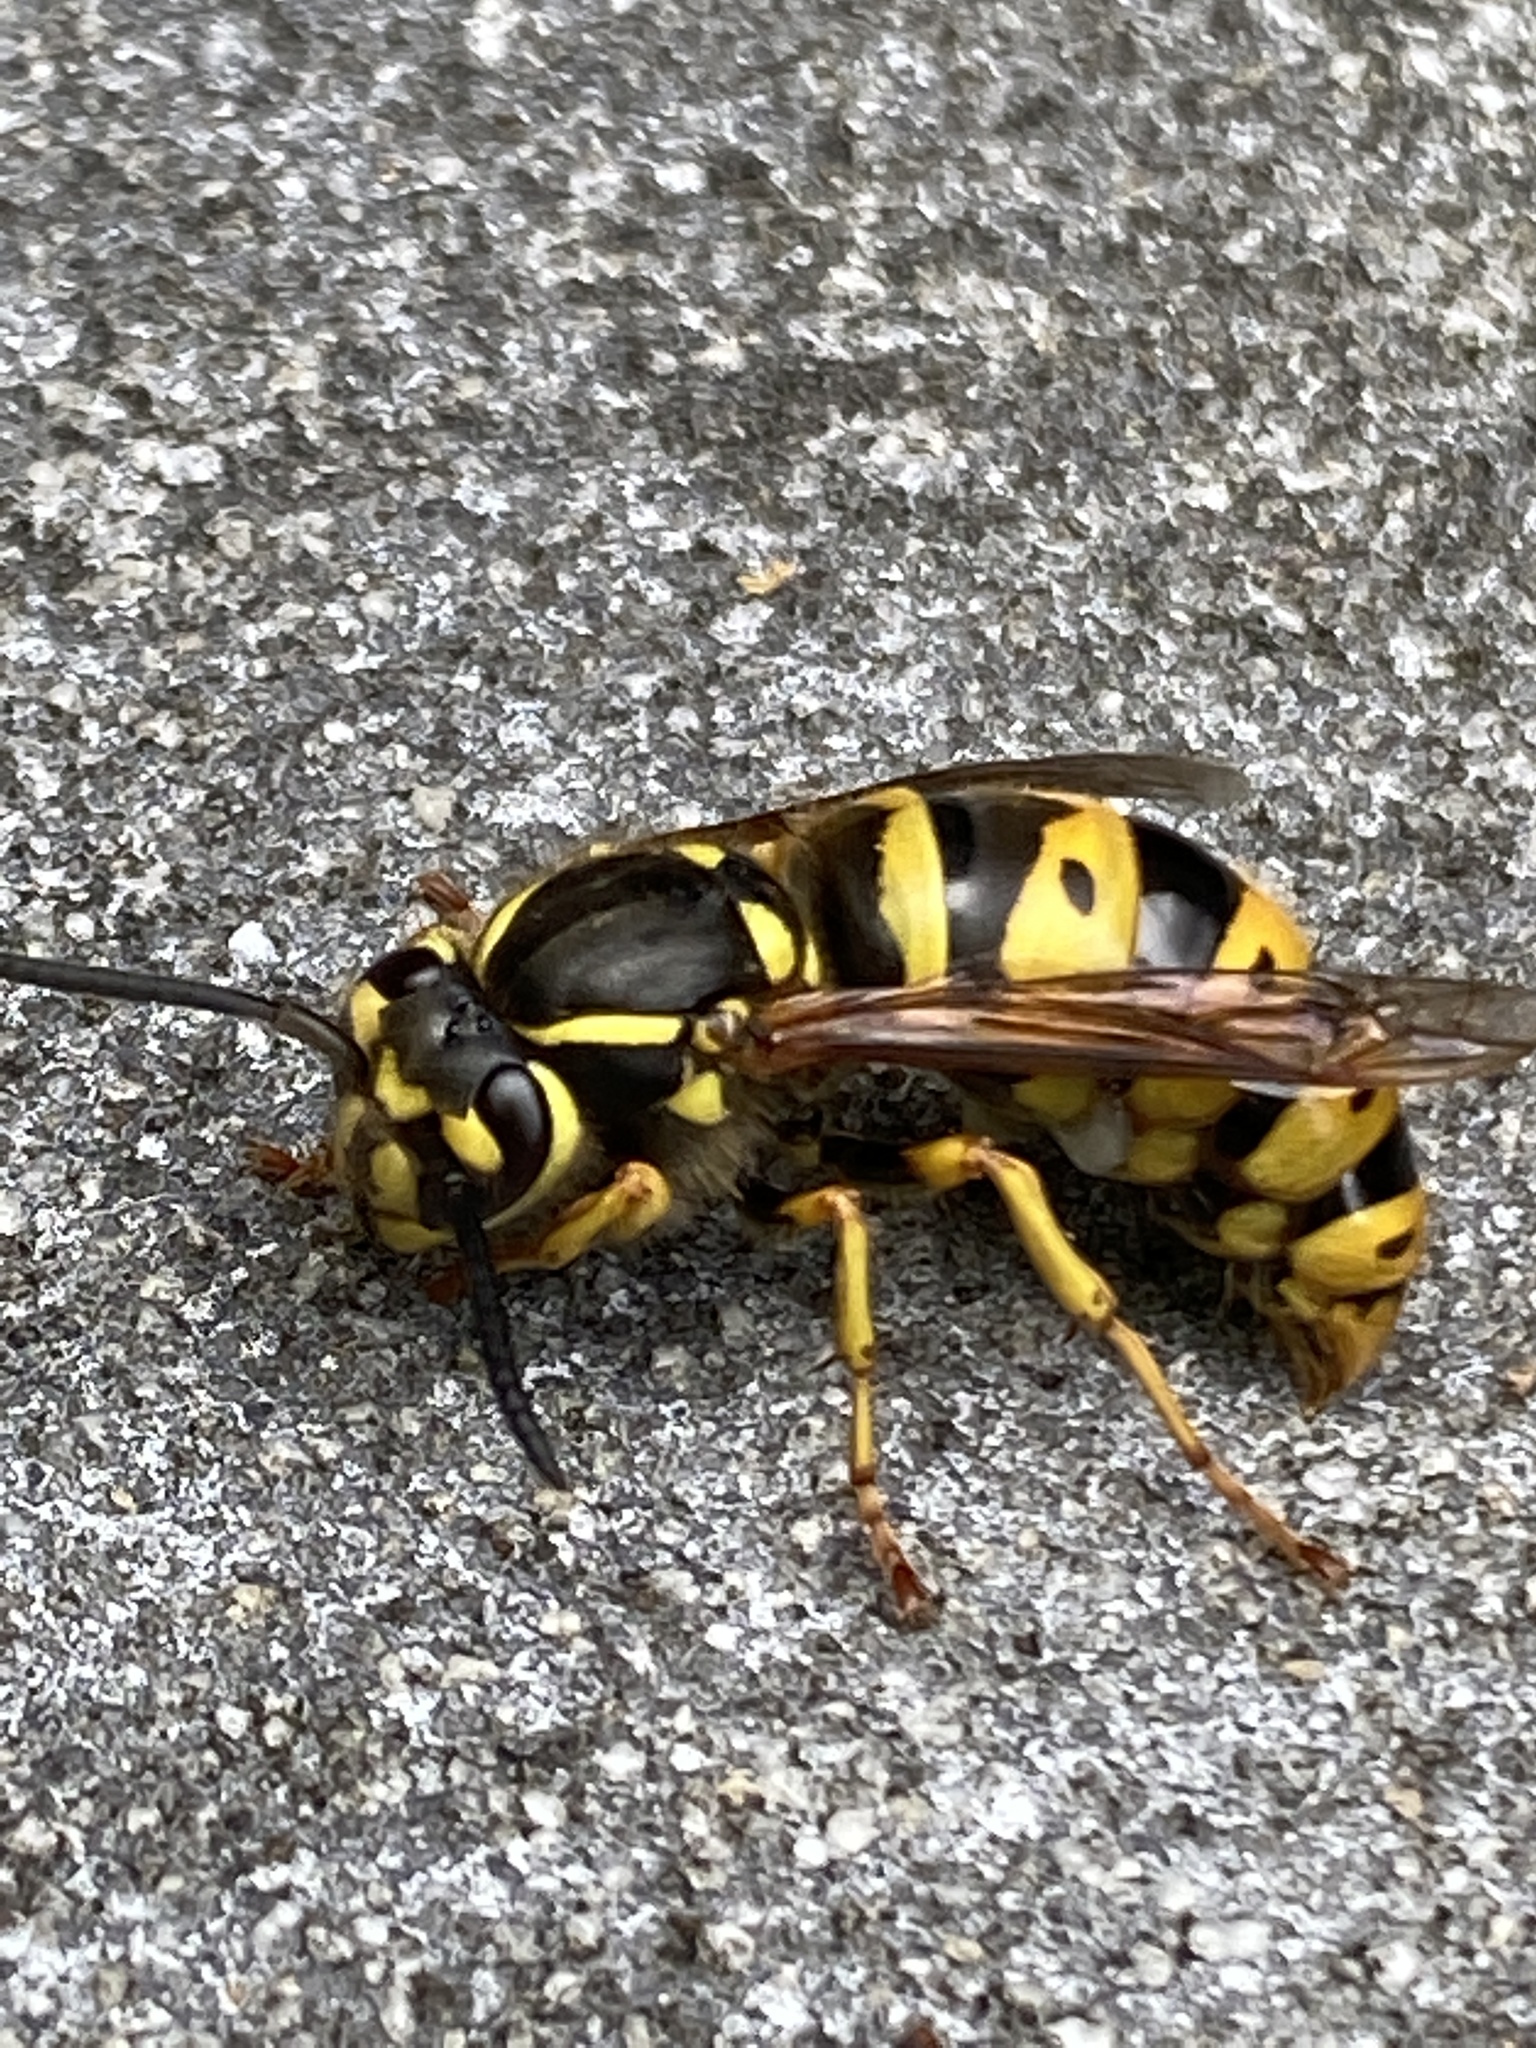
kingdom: Animalia
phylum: Arthropoda
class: Insecta
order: Hymenoptera
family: Vespidae
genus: Vespula
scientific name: Vespula flavopilosa
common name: Downy yellowjacket
